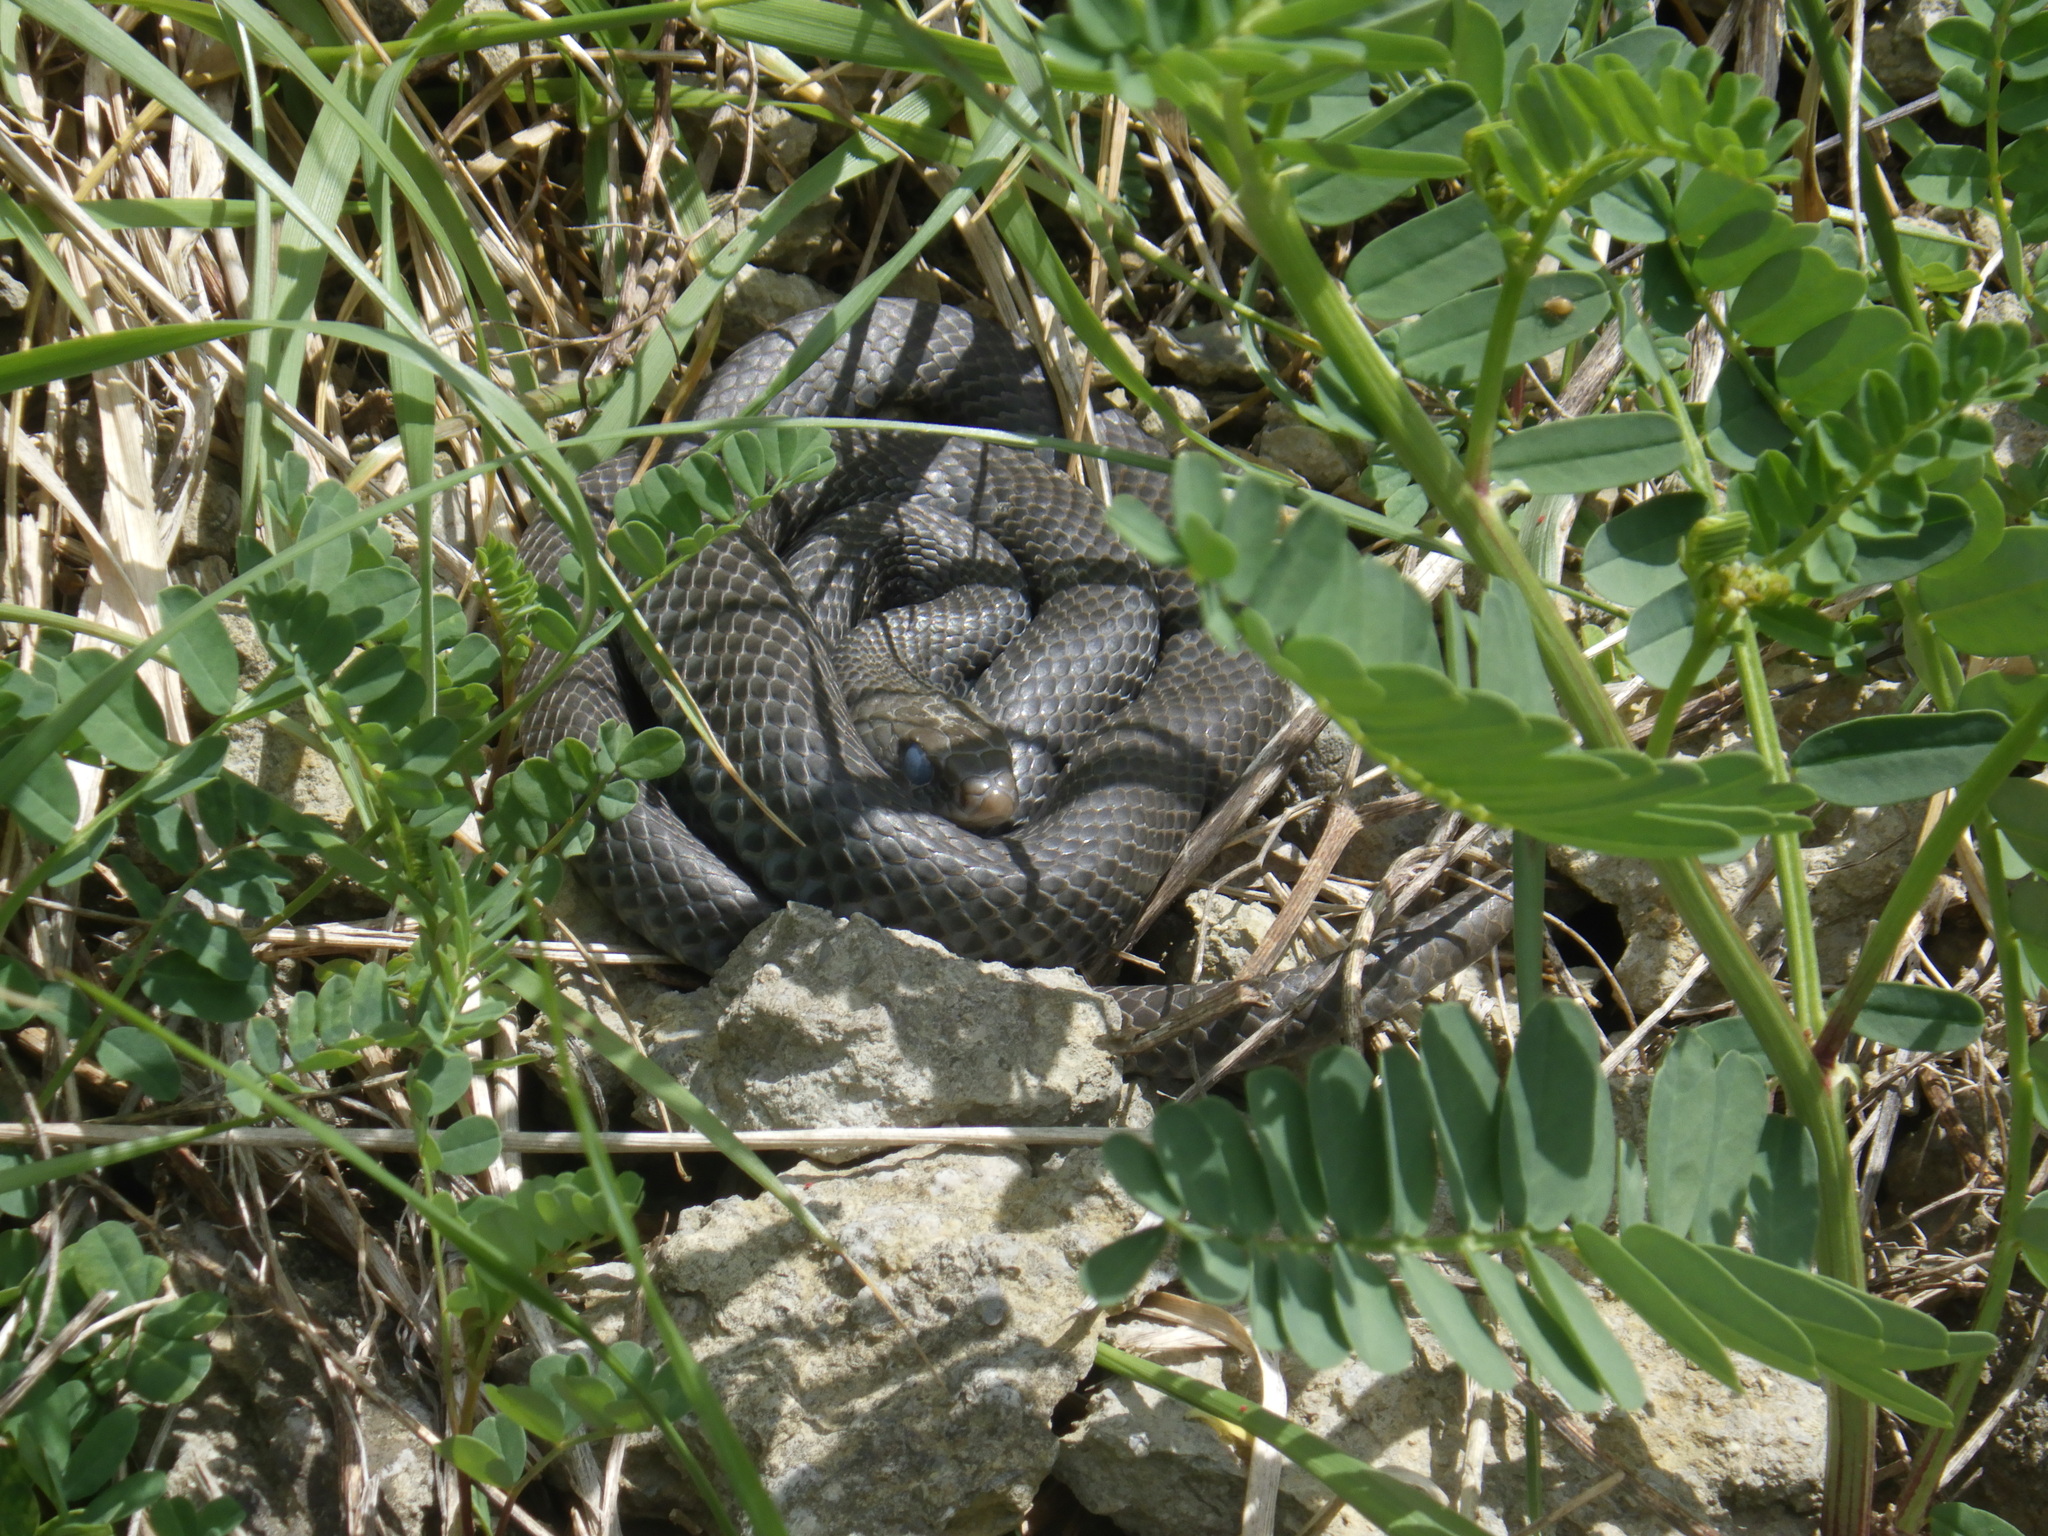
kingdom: Animalia
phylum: Chordata
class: Squamata
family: Colubridae
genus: Coluber
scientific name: Coluber constrictor
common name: Eastern racer
